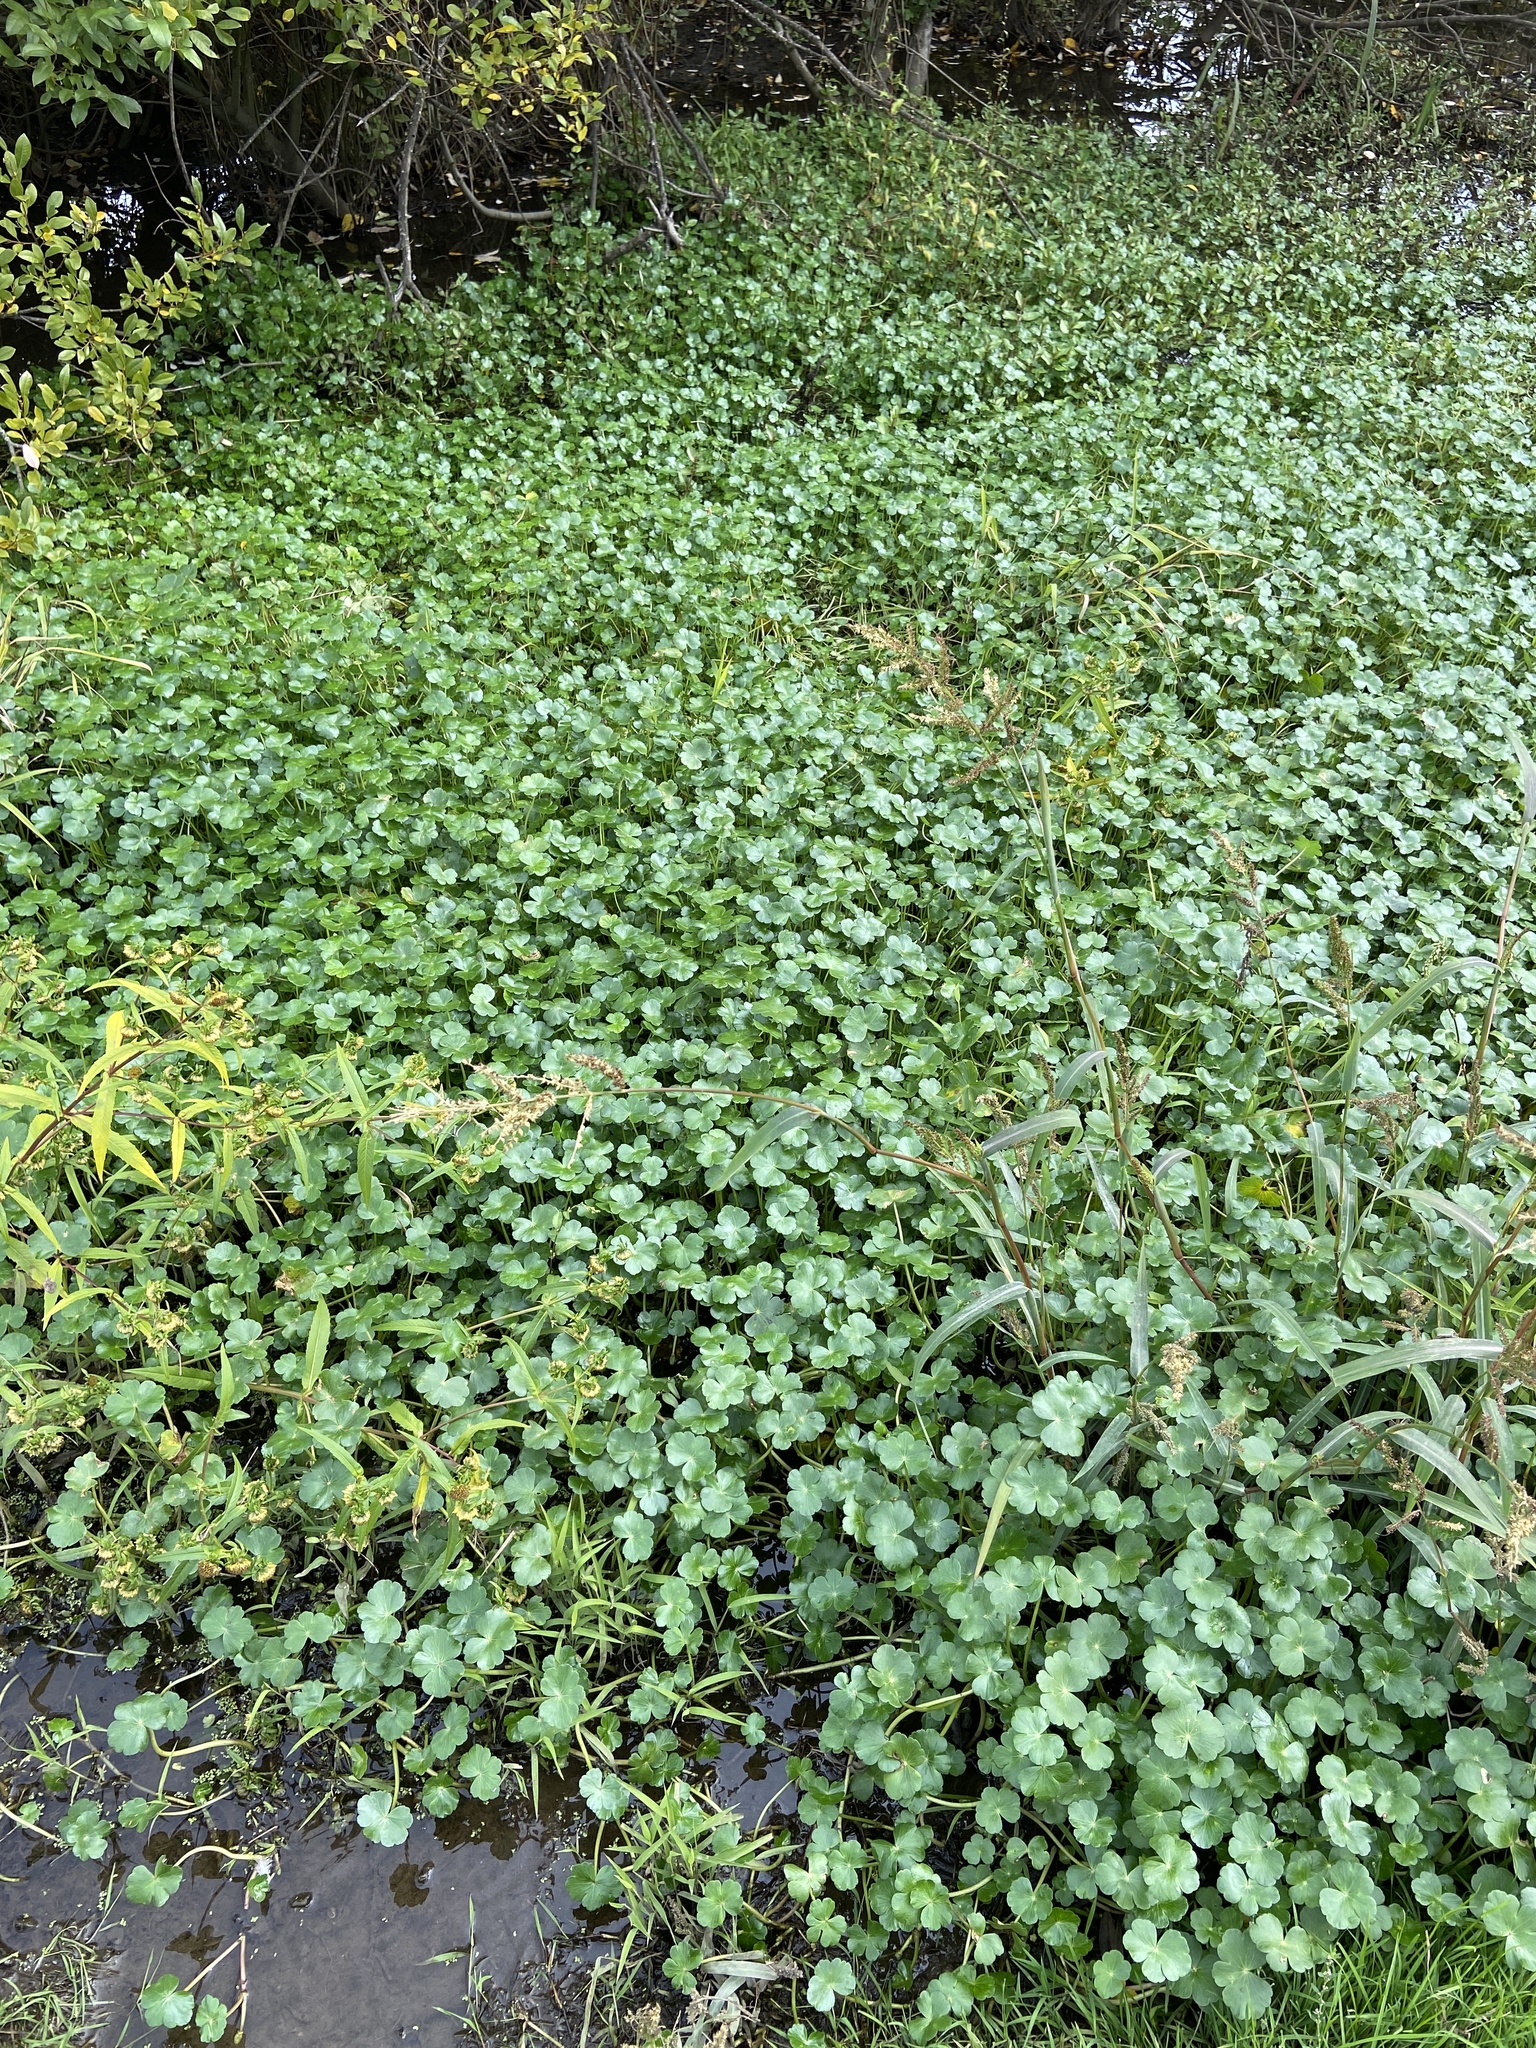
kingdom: Plantae
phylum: Tracheophyta
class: Magnoliopsida
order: Apiales
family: Araliaceae
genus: Hydrocotyle
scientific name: Hydrocotyle ranunculoides
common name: Floating pennywort
